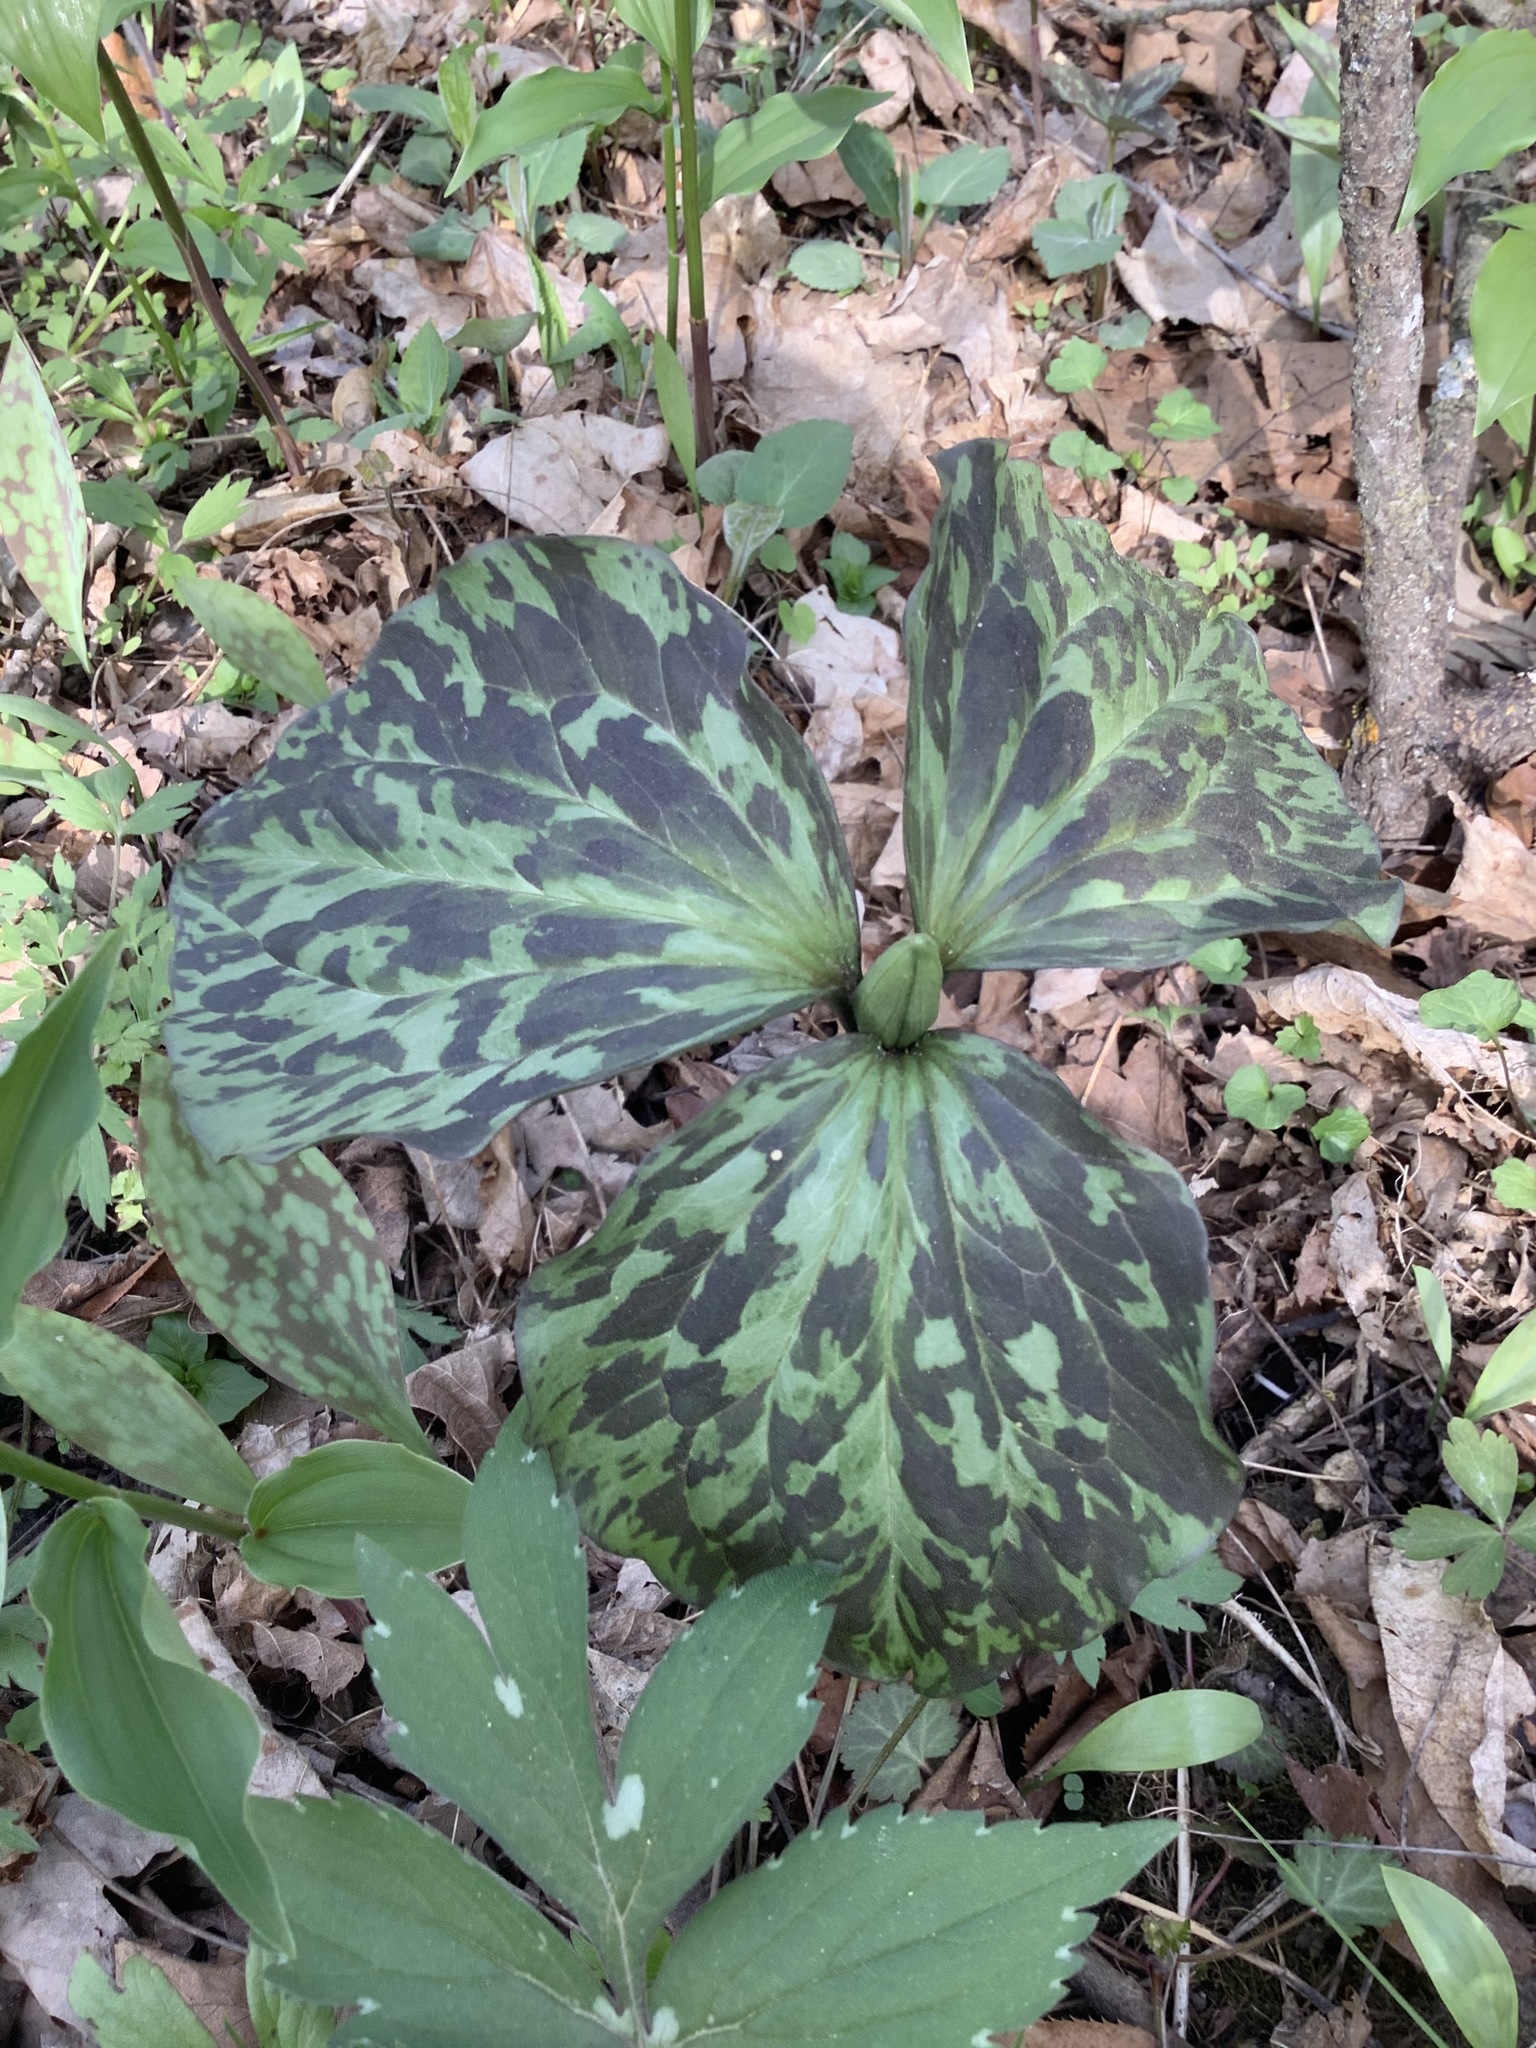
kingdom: Plantae
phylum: Tracheophyta
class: Liliopsida
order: Liliales
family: Melanthiaceae
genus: Trillium
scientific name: Trillium recurvatum
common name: Bloody butcher
